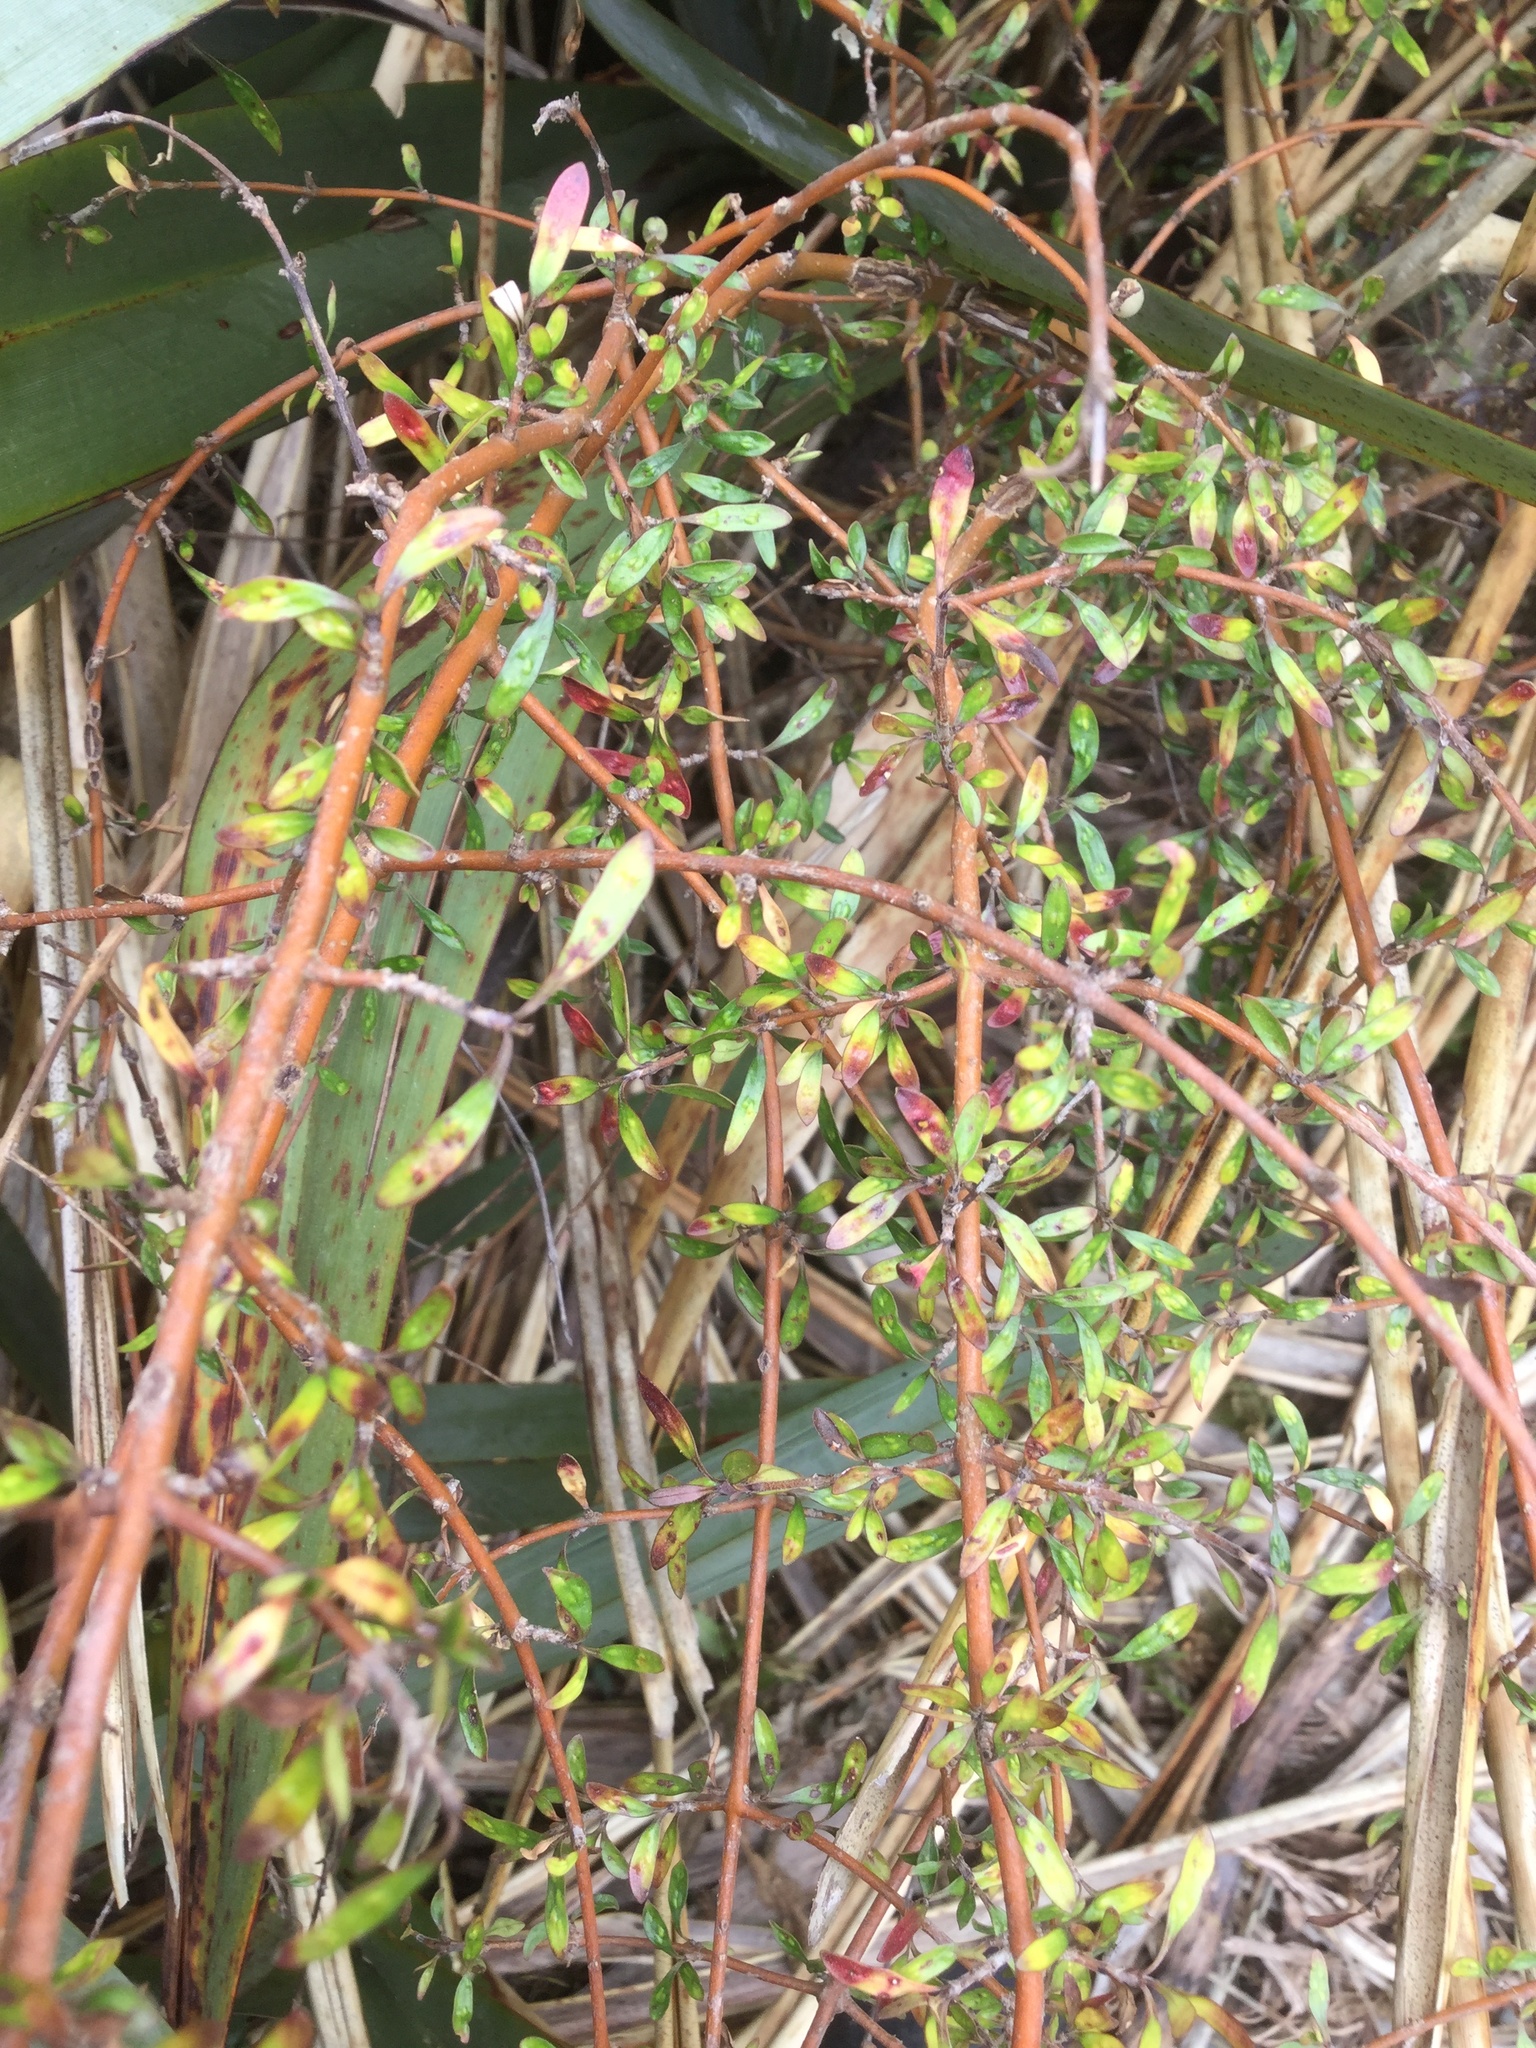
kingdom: Plantae
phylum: Tracheophyta
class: Magnoliopsida
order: Gentianales
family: Rubiaceae
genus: Coprosma
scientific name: Coprosma propinqua
